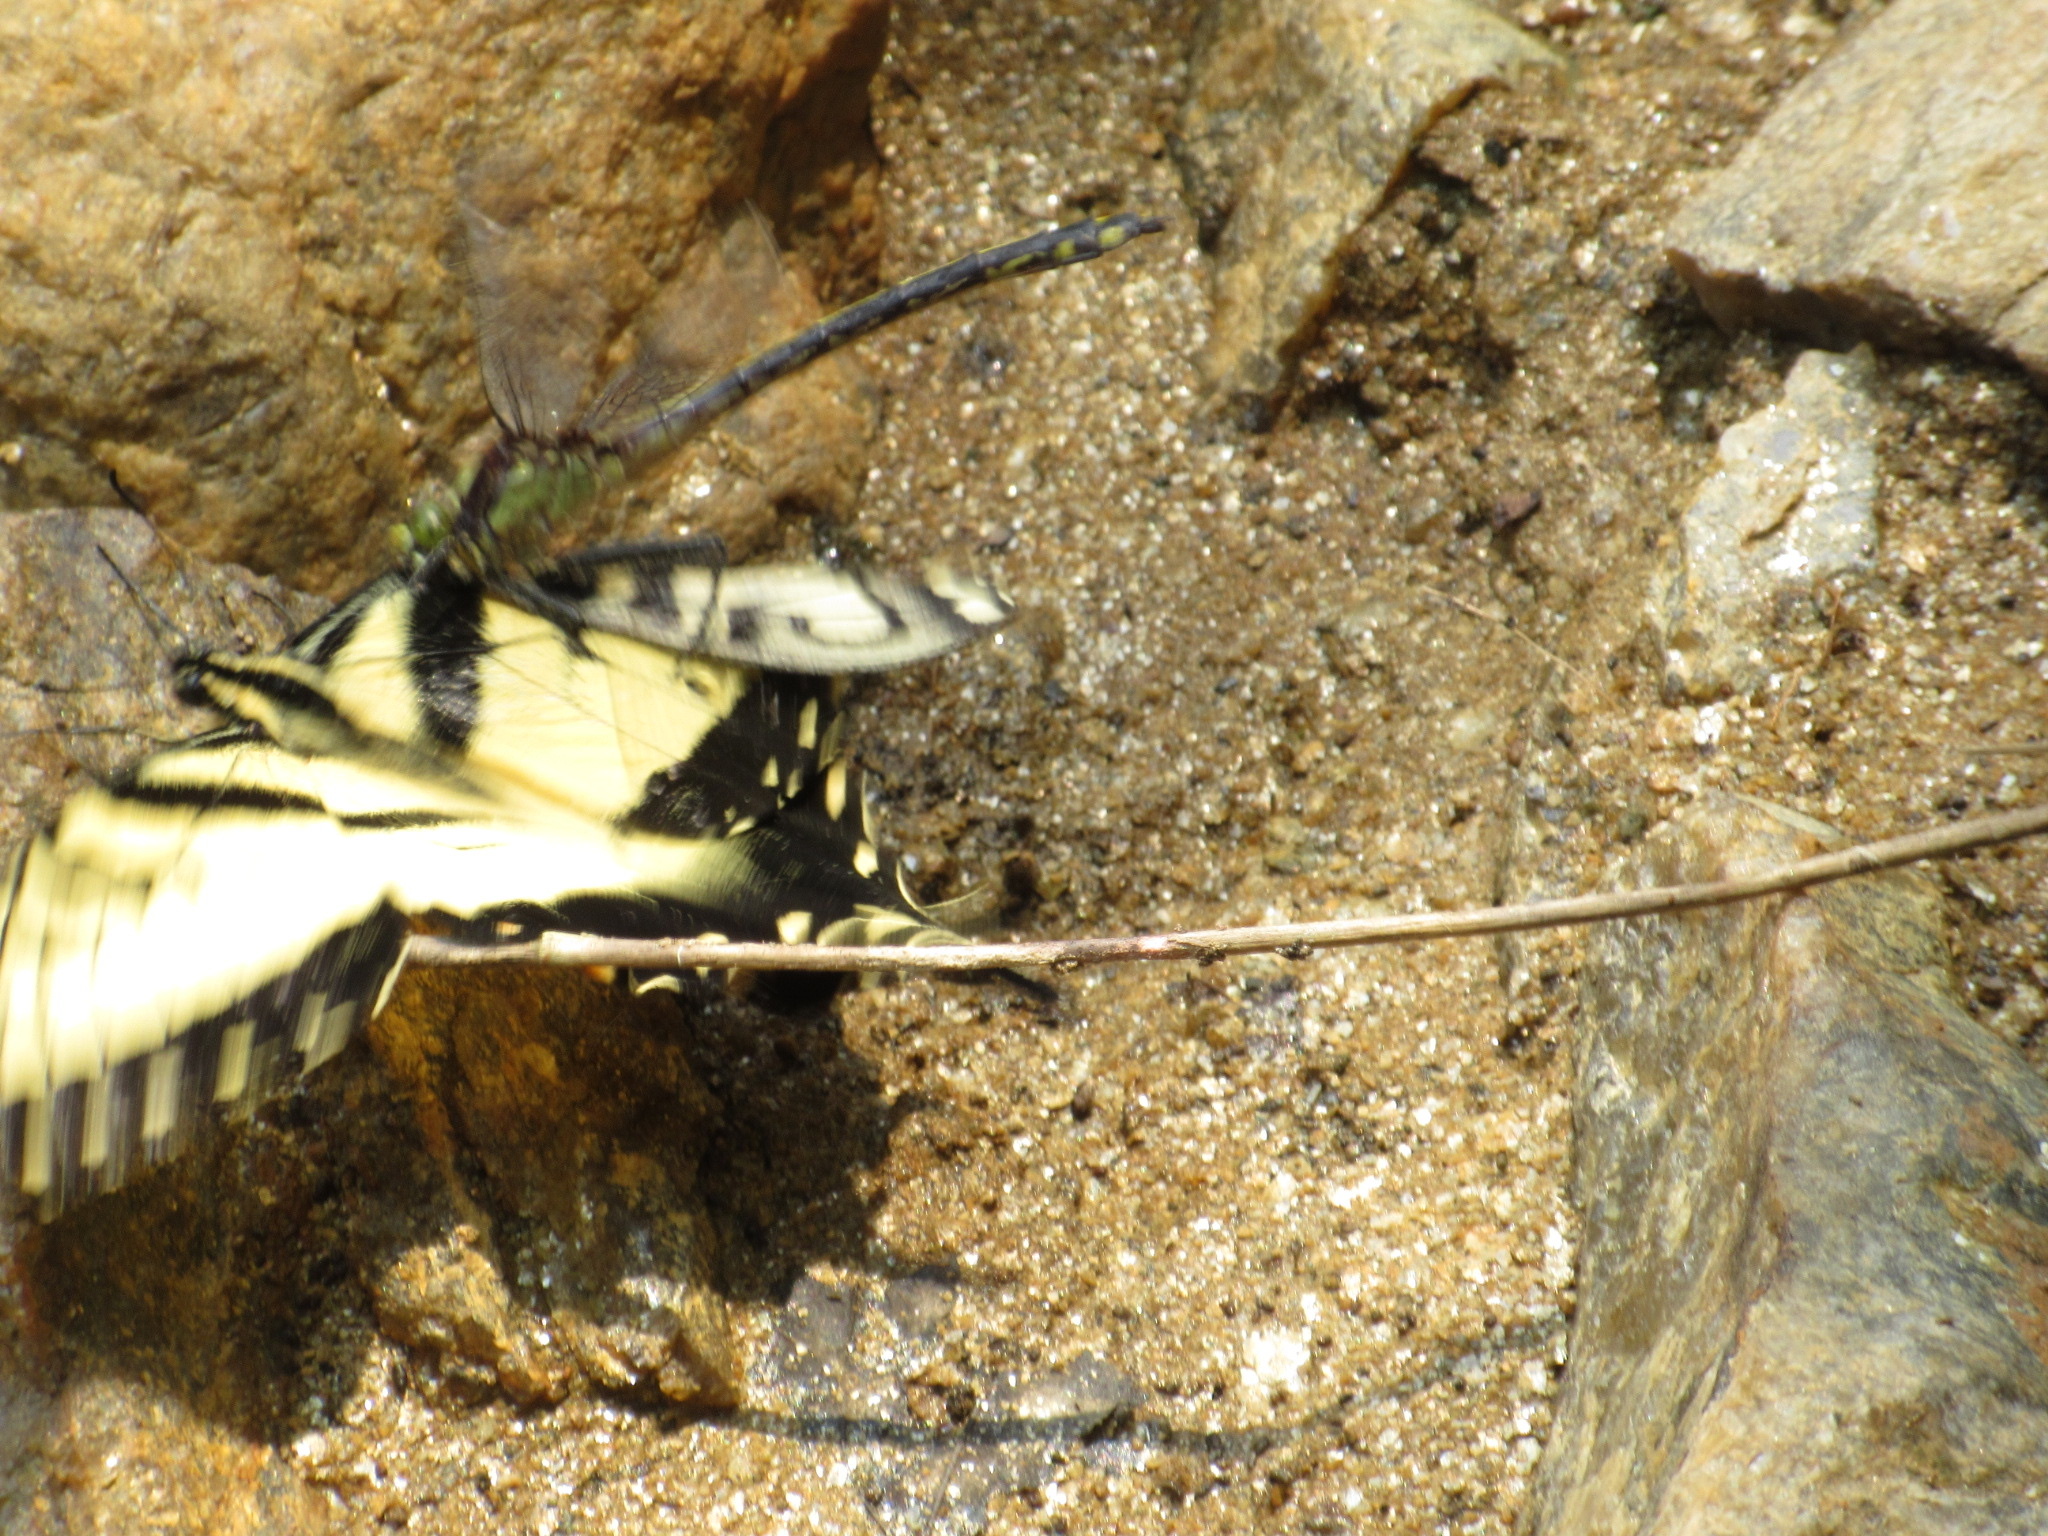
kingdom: Animalia
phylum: Arthropoda
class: Insecta
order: Odonata
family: Gomphidae
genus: Dromogomphus
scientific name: Dromogomphus spinosus
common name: Black-shouldered spinyleg
